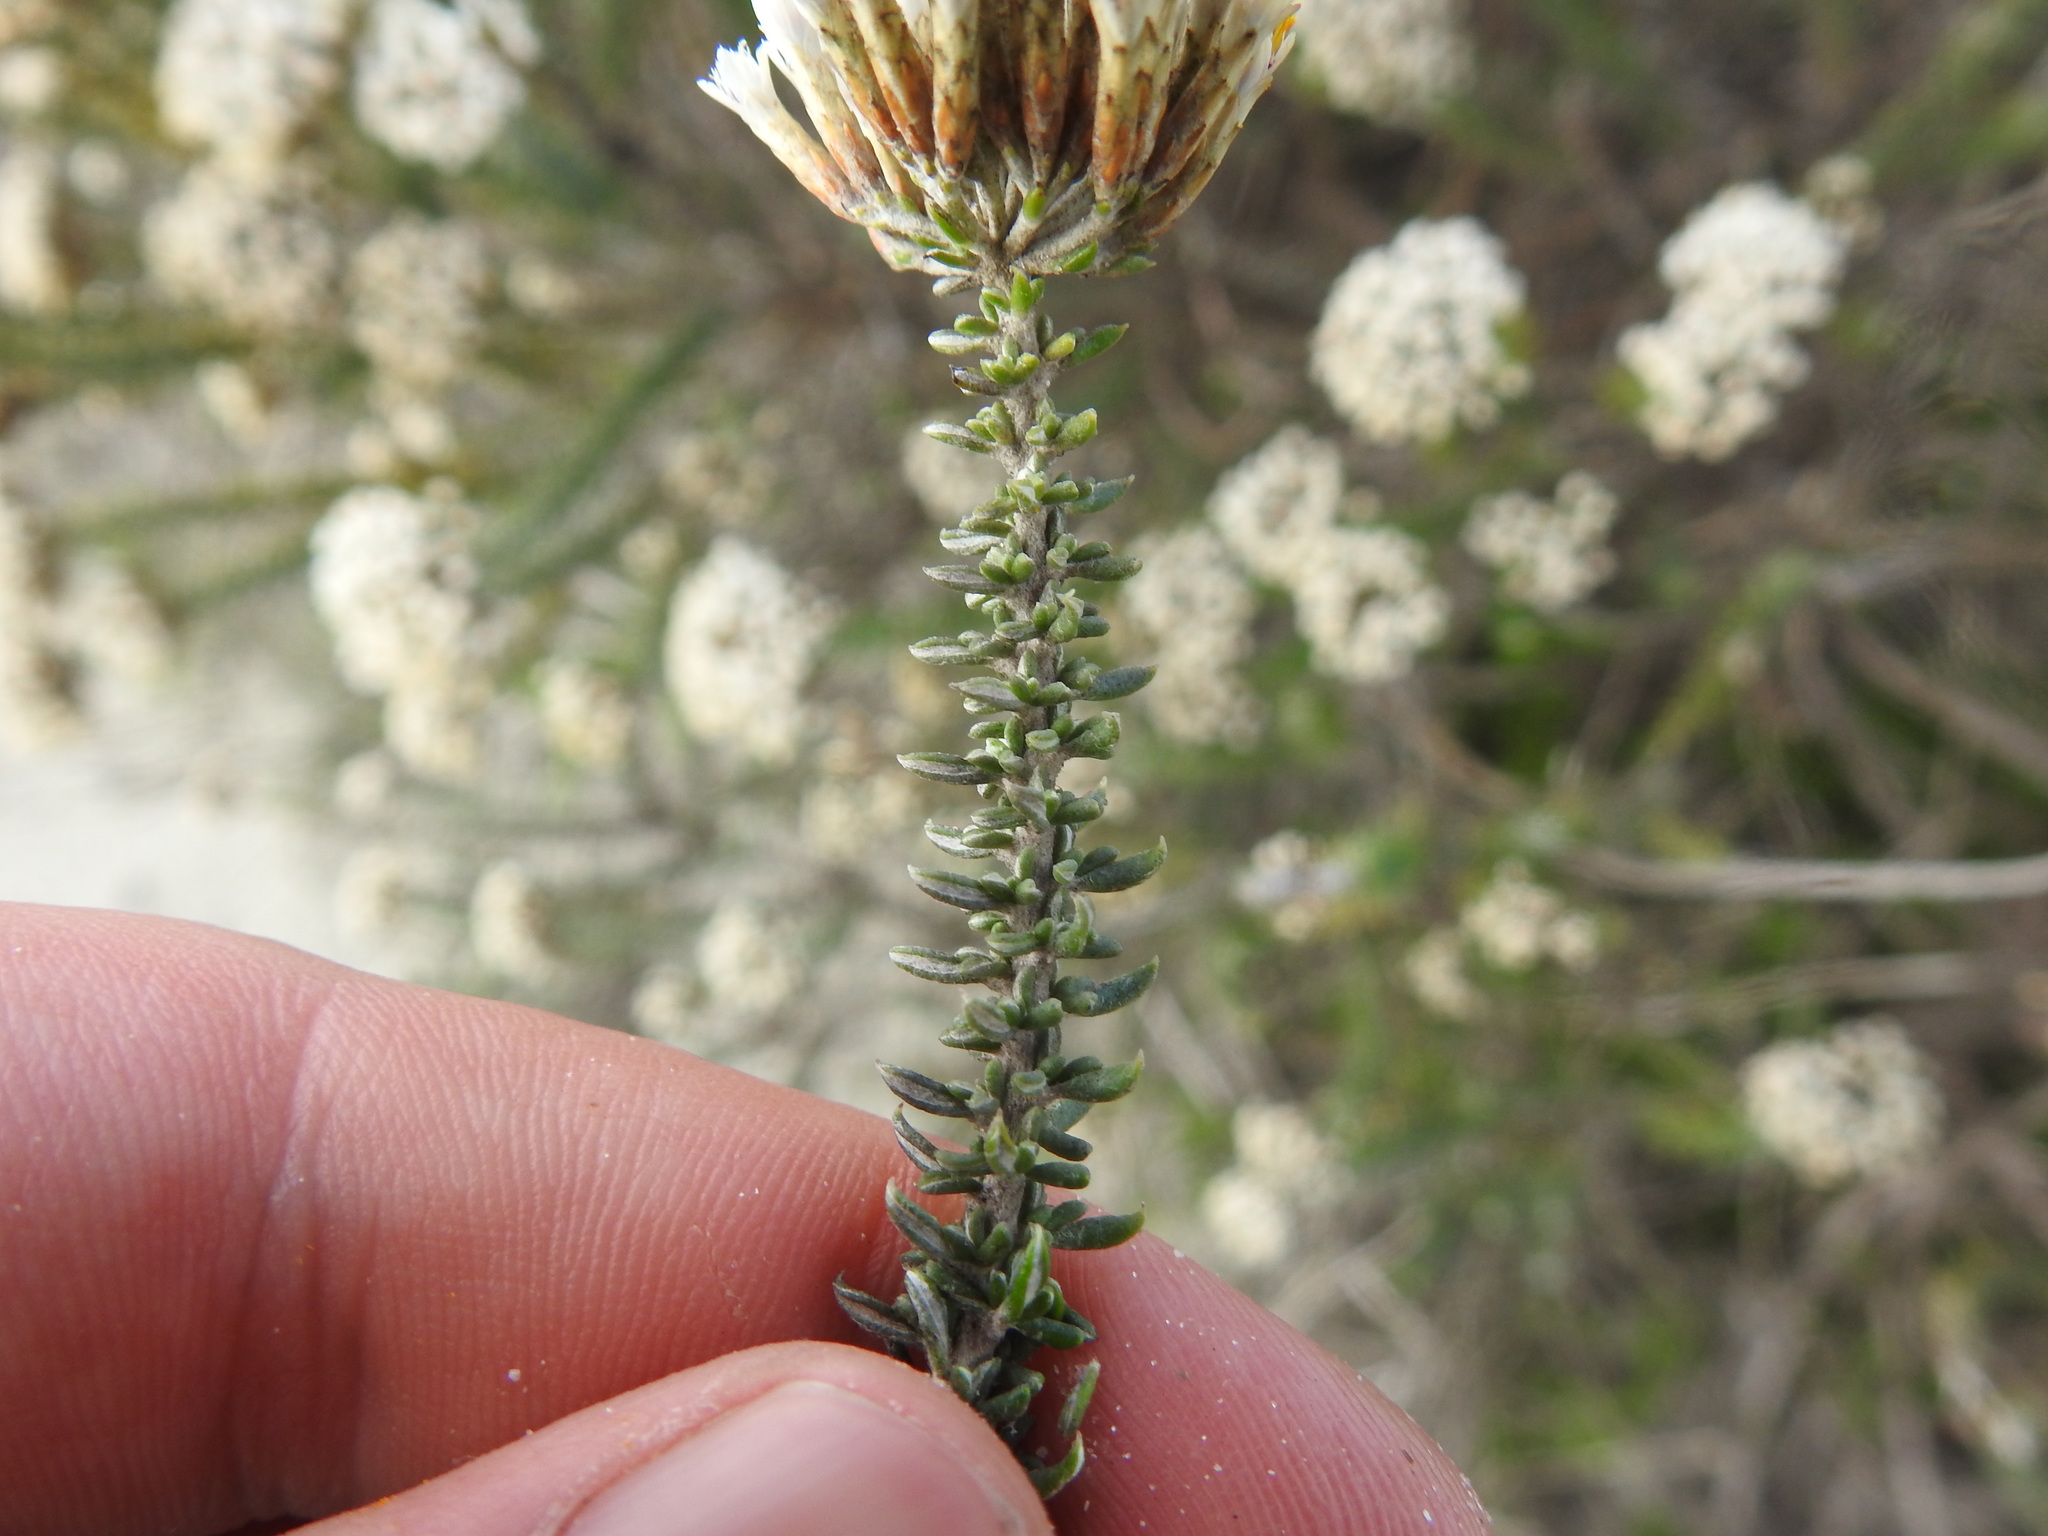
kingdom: Plantae
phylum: Tracheophyta
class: Magnoliopsida
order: Asterales
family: Asteraceae
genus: Metalasia
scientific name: Metalasia muricata
